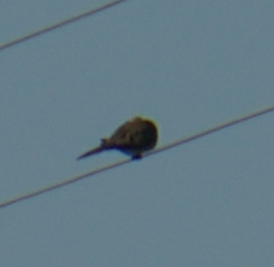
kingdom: Animalia
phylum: Chordata
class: Aves
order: Columbiformes
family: Columbidae
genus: Zenaida
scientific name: Zenaida macroura
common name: Mourning dove
